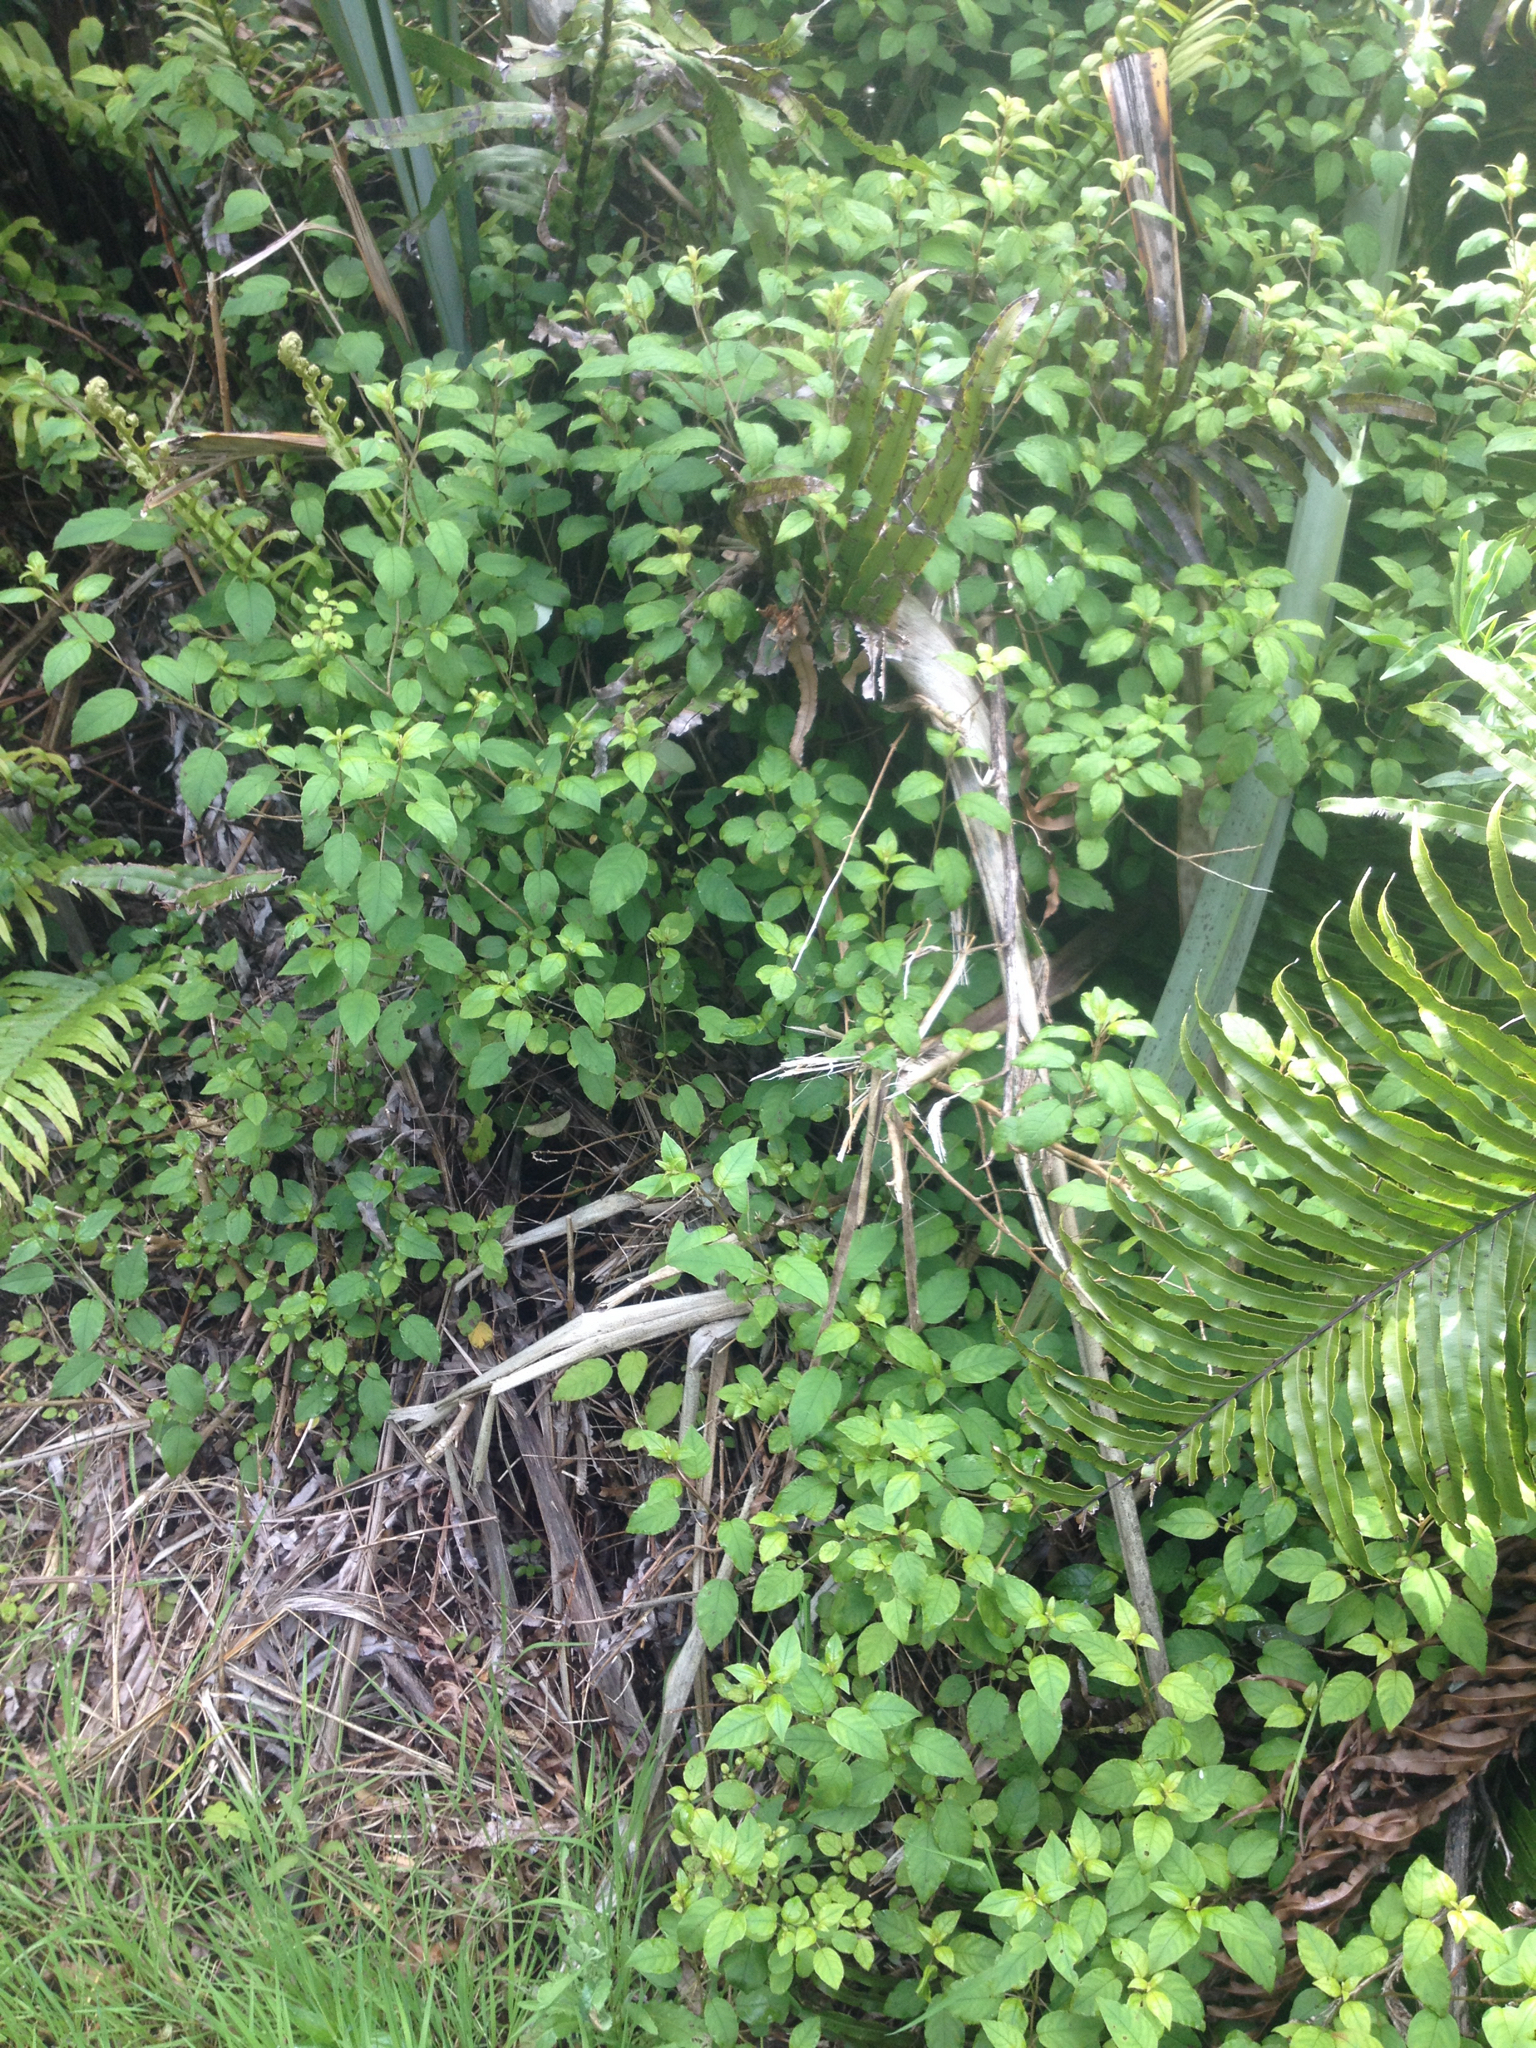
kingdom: Plantae
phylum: Tracheophyta
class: Magnoliopsida
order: Myrtales
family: Onagraceae
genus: Fuchsia
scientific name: Fuchsia perscandens
